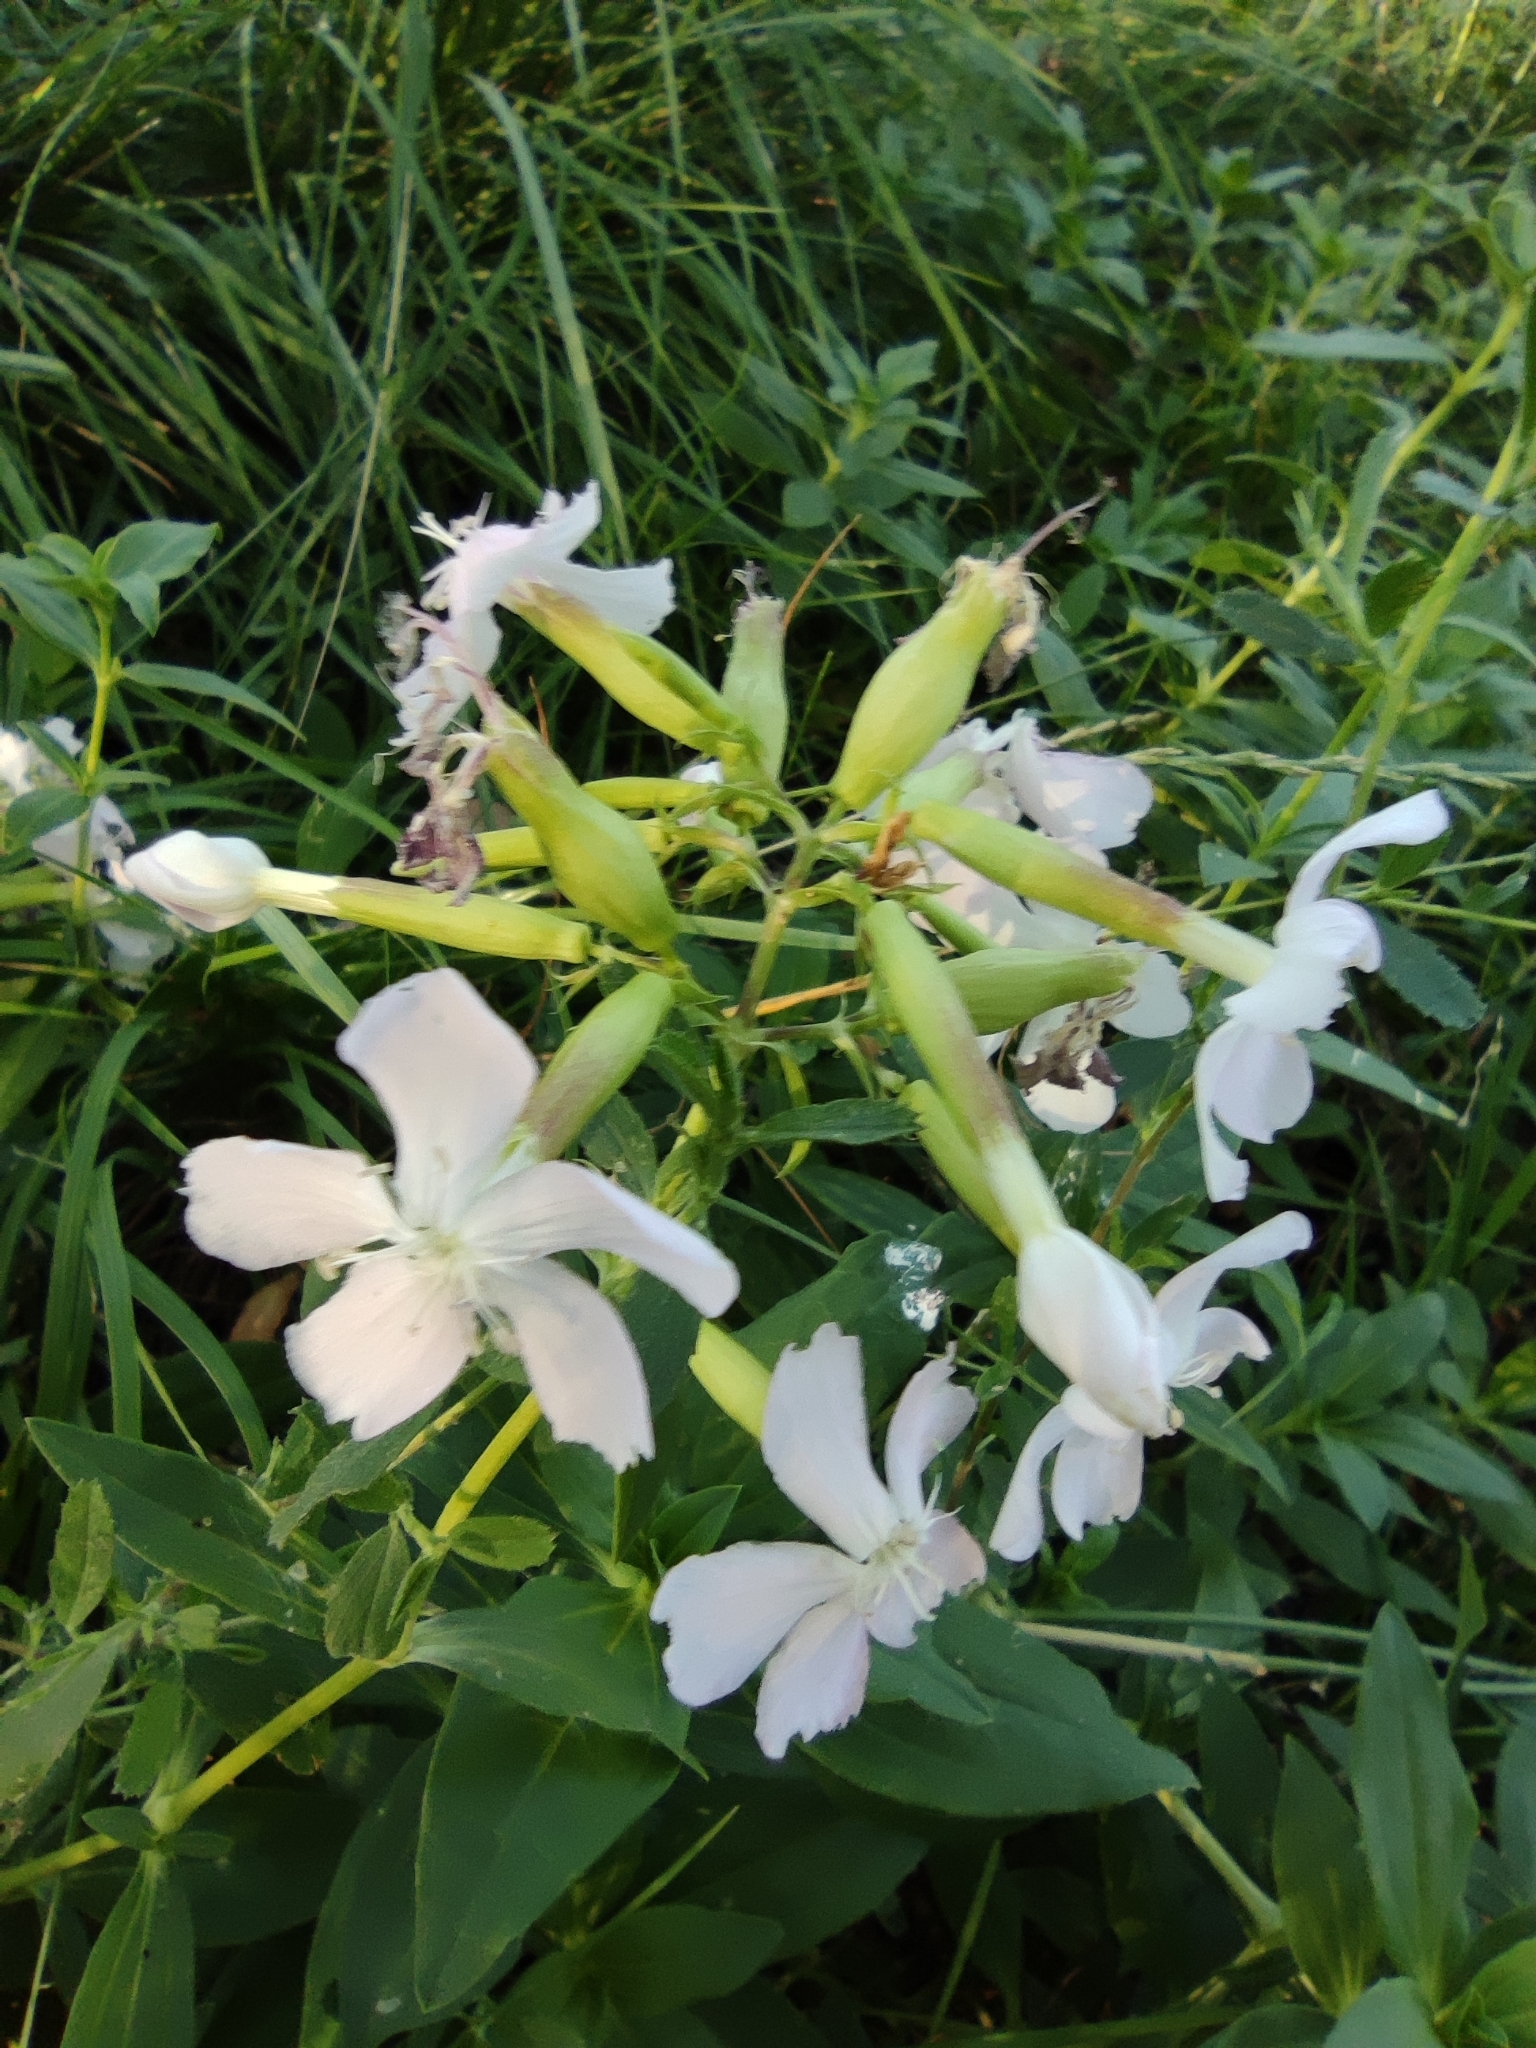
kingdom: Plantae
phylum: Tracheophyta
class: Magnoliopsida
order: Caryophyllales
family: Caryophyllaceae
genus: Saponaria
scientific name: Saponaria officinalis
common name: Soapwort
